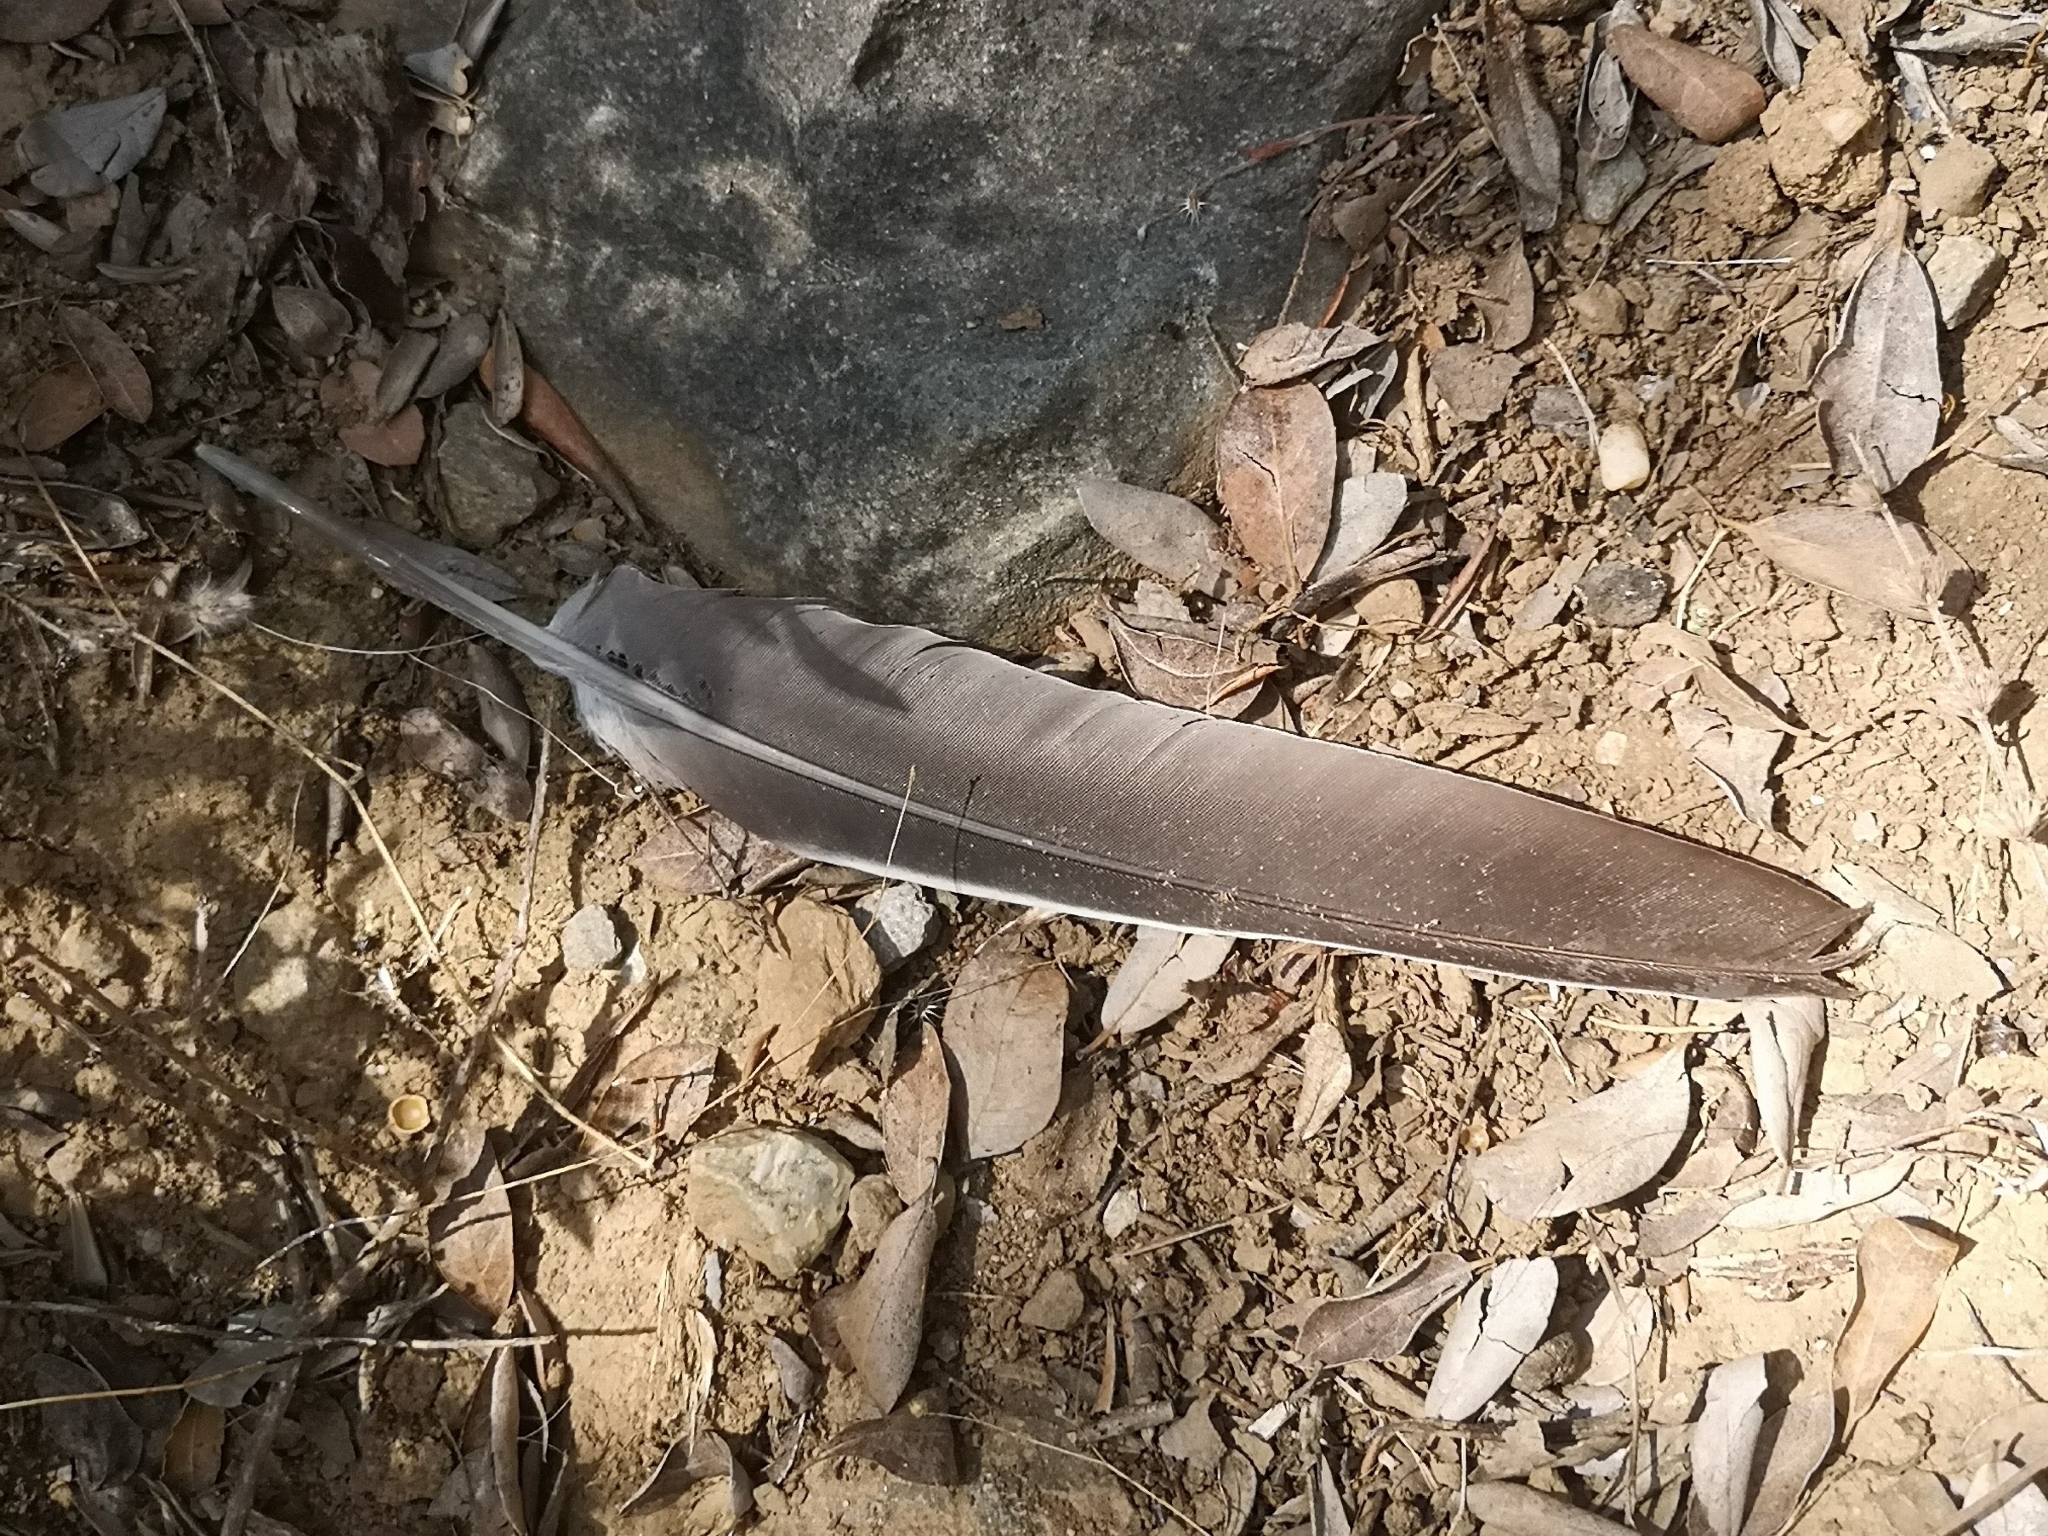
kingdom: Animalia
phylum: Chordata
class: Aves
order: Columbiformes
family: Columbidae
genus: Columba
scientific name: Columba palumbus
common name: Common wood pigeon
